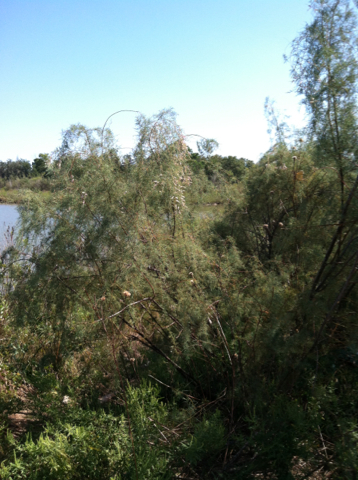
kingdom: Plantae
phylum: Tracheophyta
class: Magnoliopsida
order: Caryophyllales
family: Tamaricaceae
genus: Tamarix
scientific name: Tamarix ramosissima
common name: Pink tamarisk
